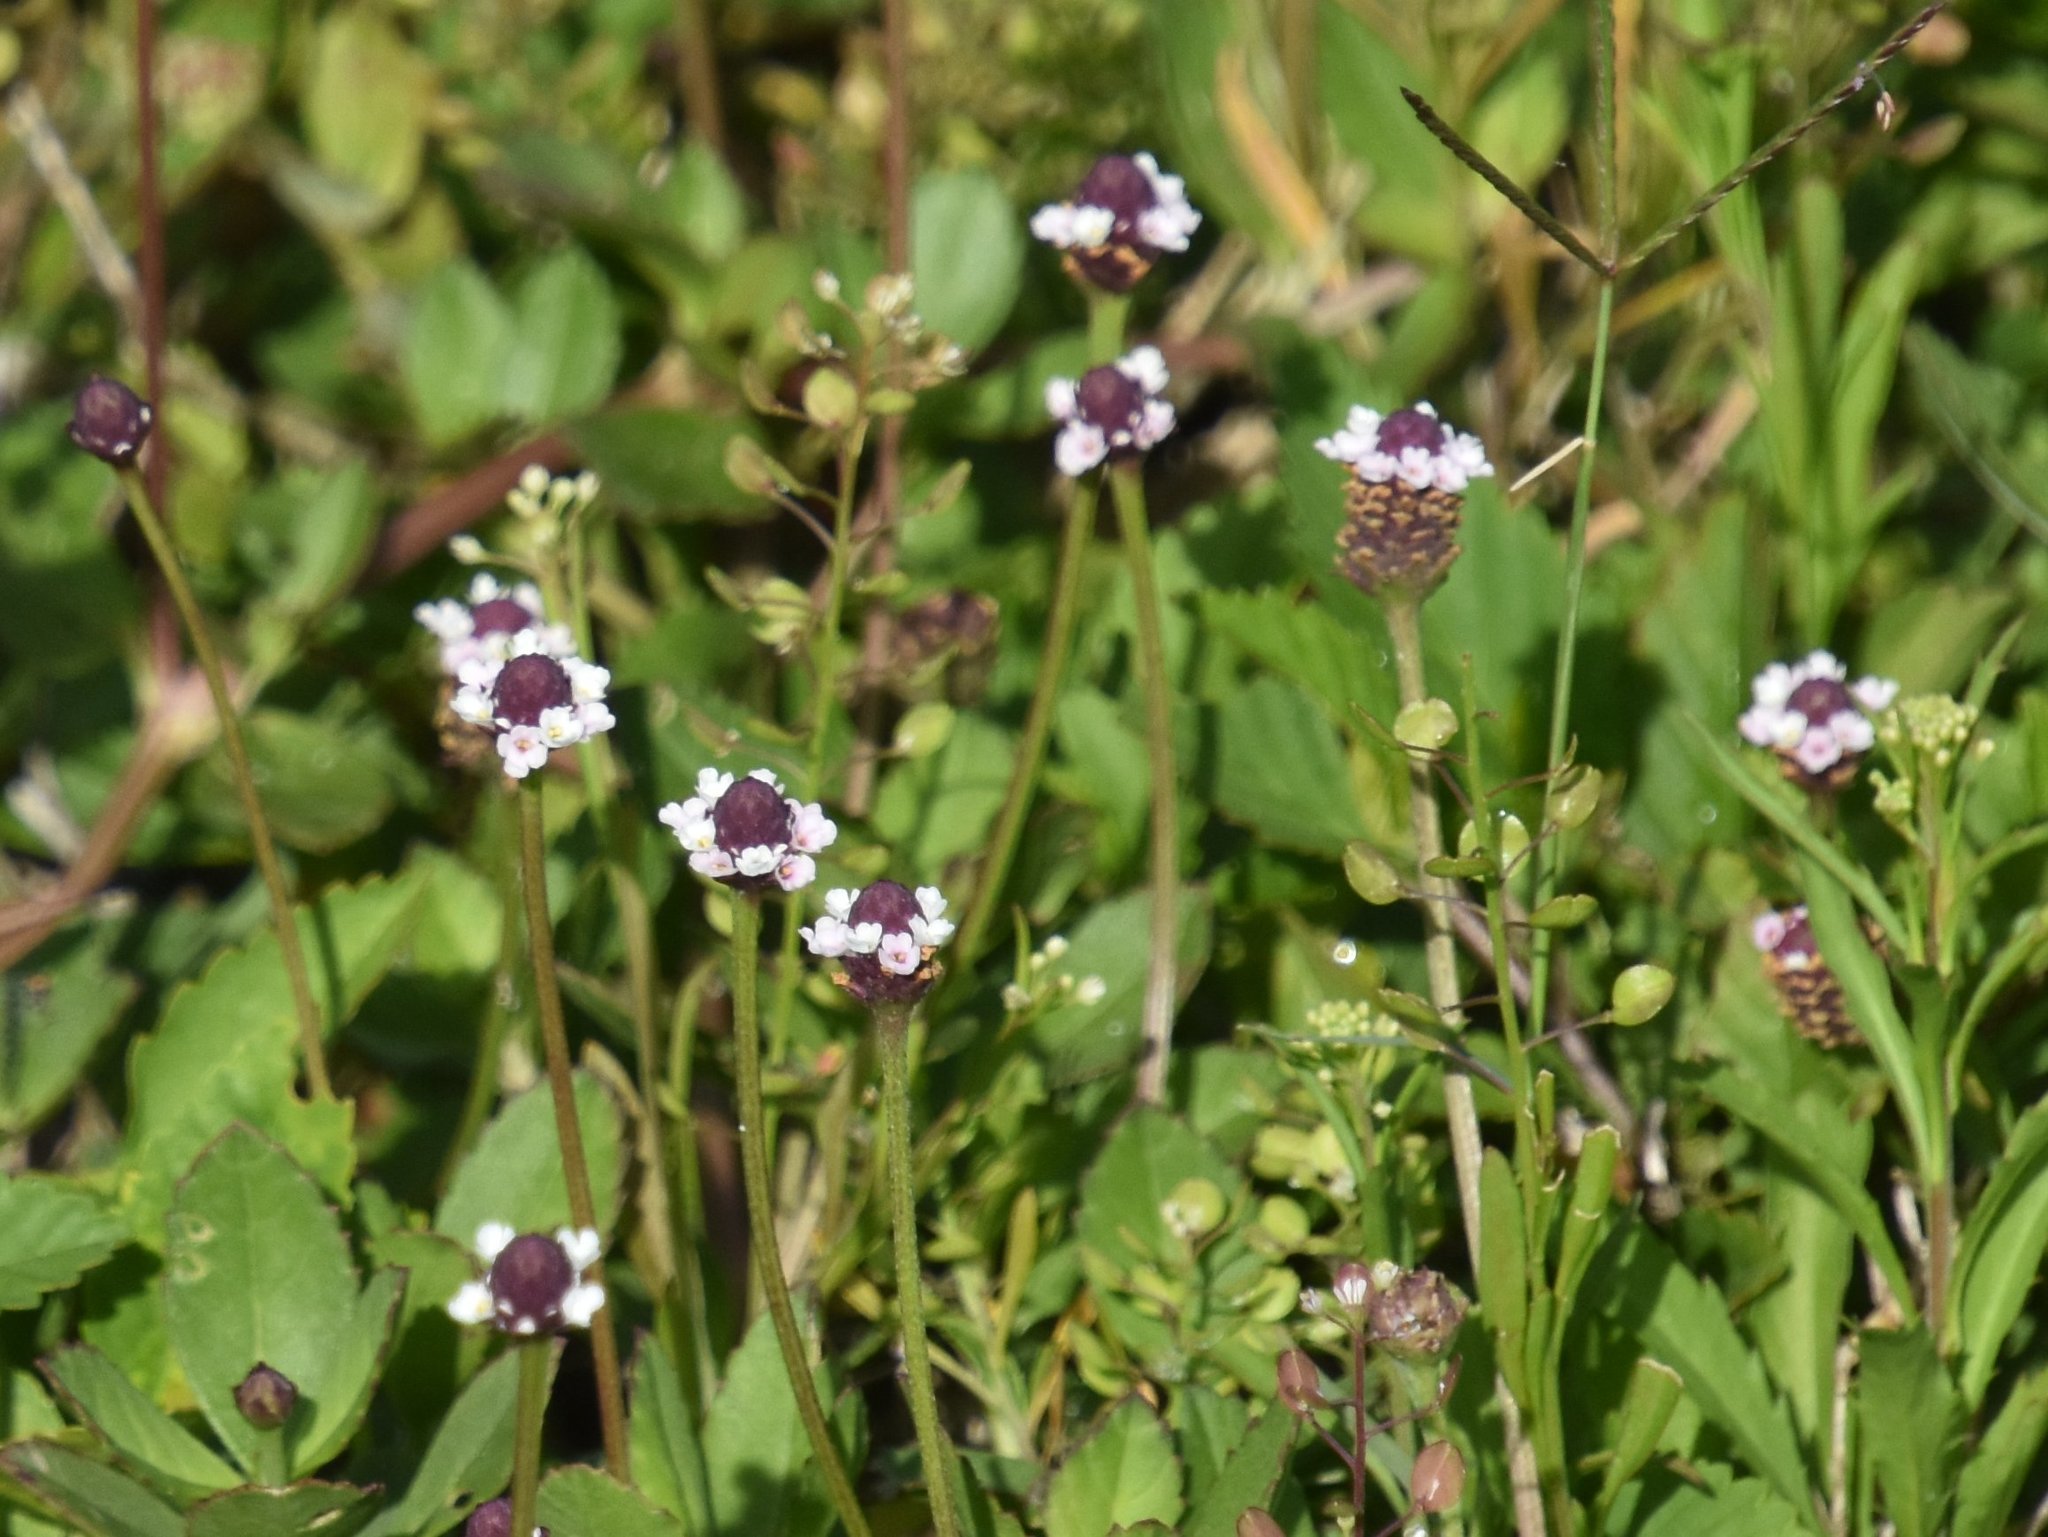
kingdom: Plantae
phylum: Tracheophyta
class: Magnoliopsida
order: Lamiales
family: Verbenaceae
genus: Phyla
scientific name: Phyla nodiflora
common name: Frogfruit
